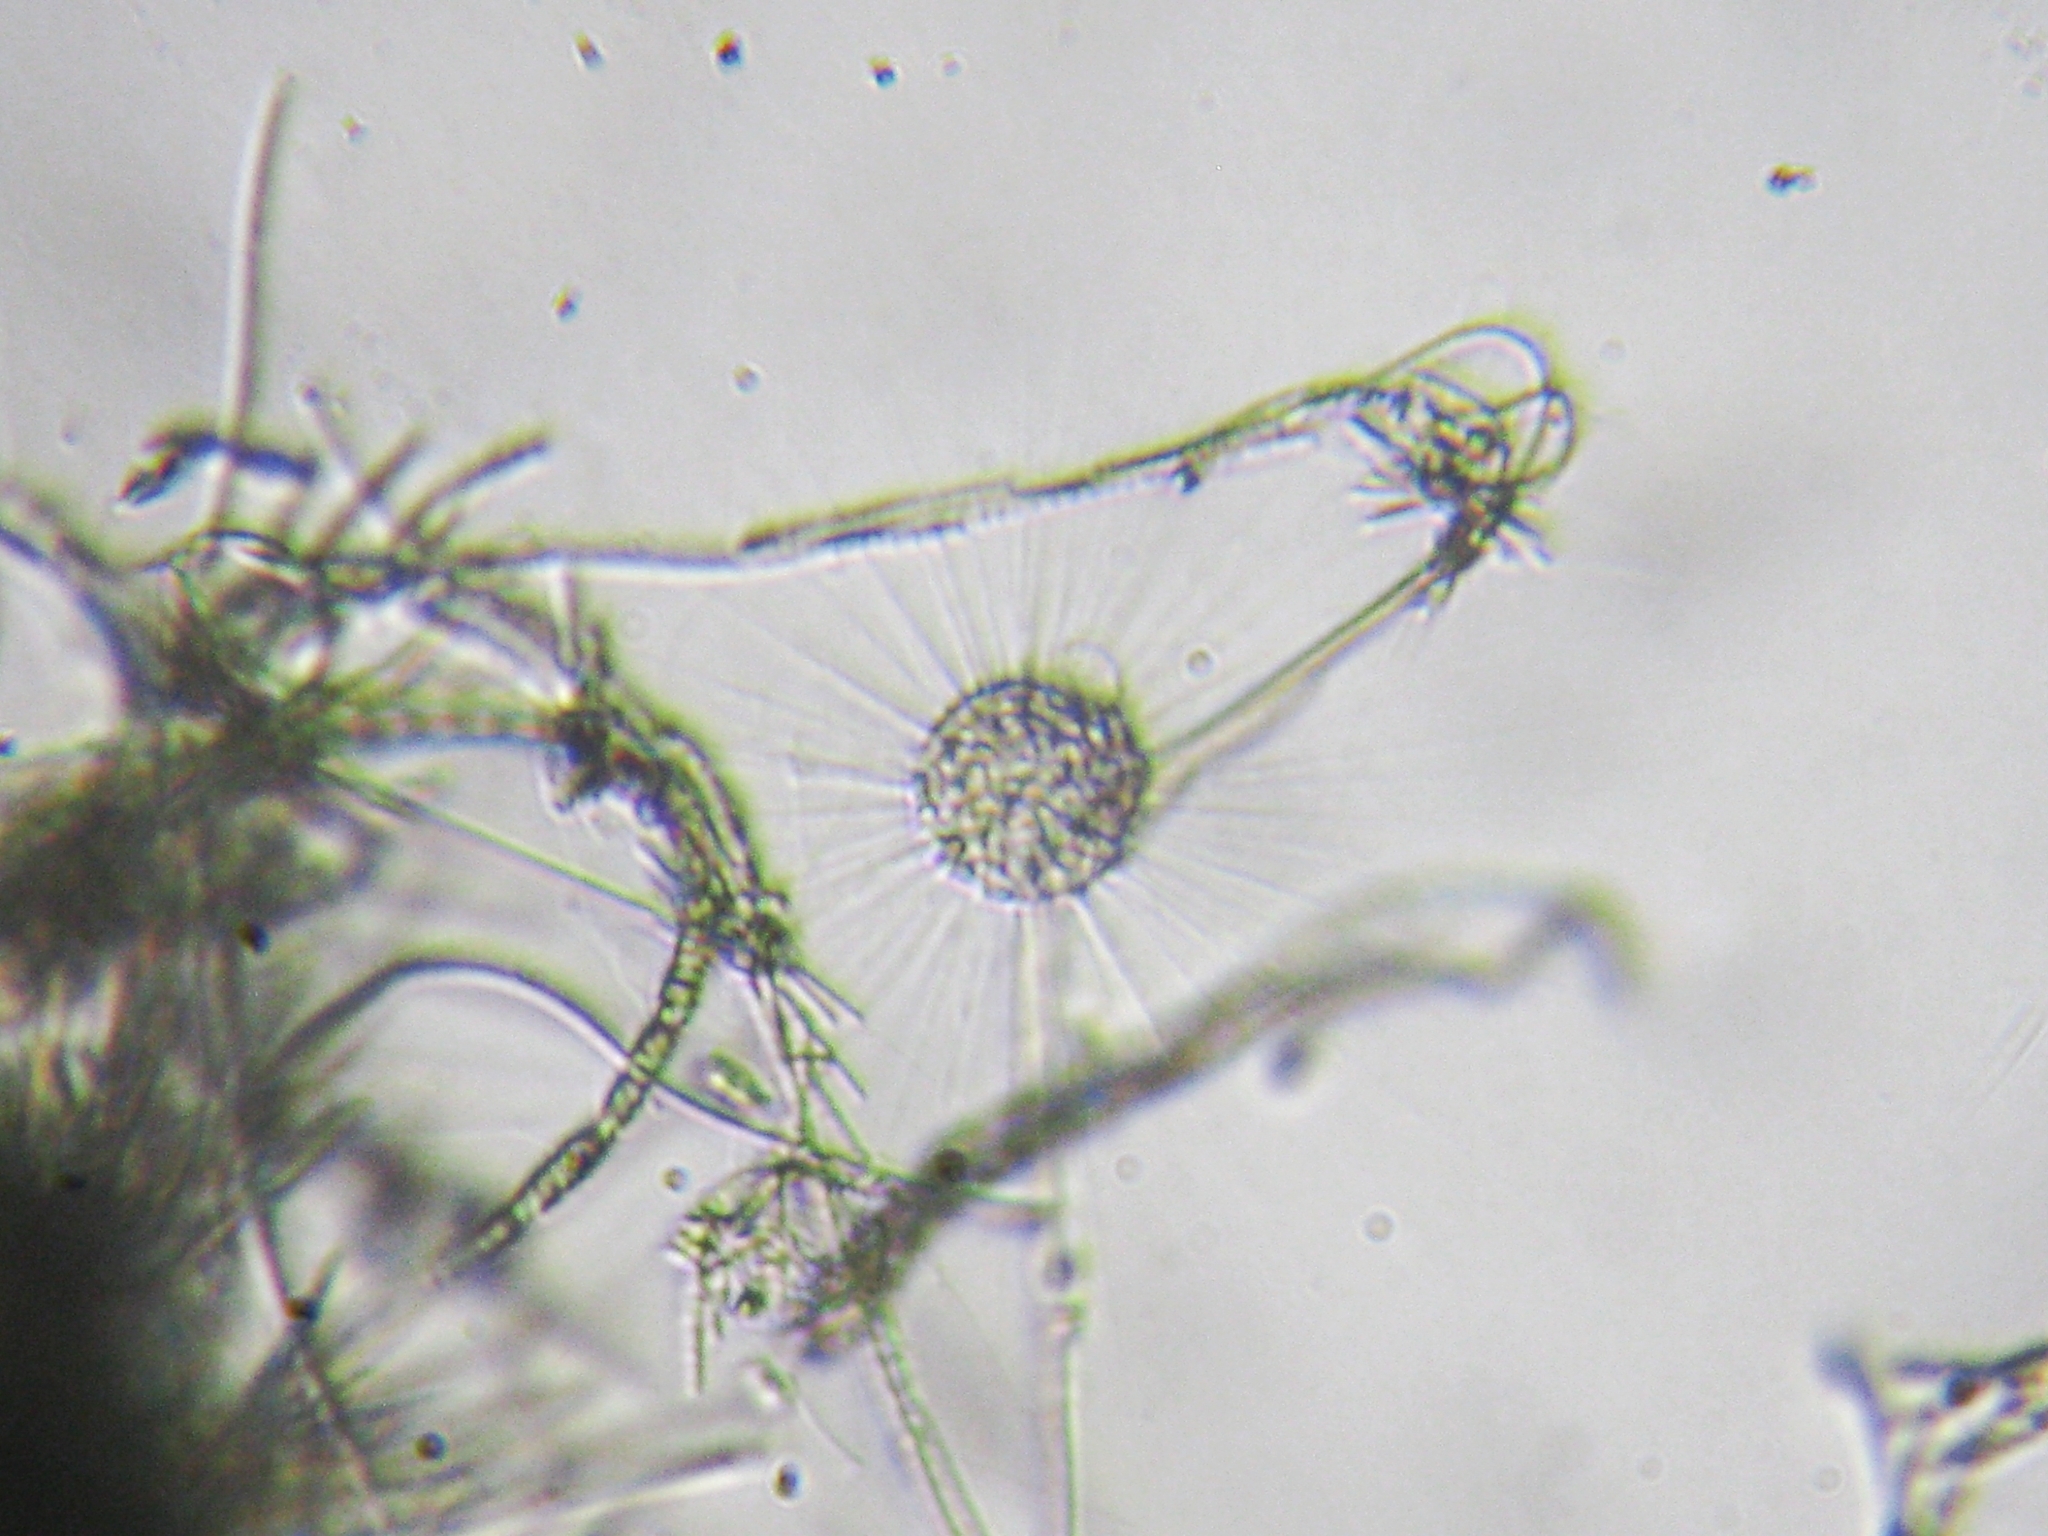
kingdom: Chromista
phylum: Ochrophyta
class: Raphidophyceae
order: Actinophryida
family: Actinophryidae
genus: Actinophrys
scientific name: Actinophrys
